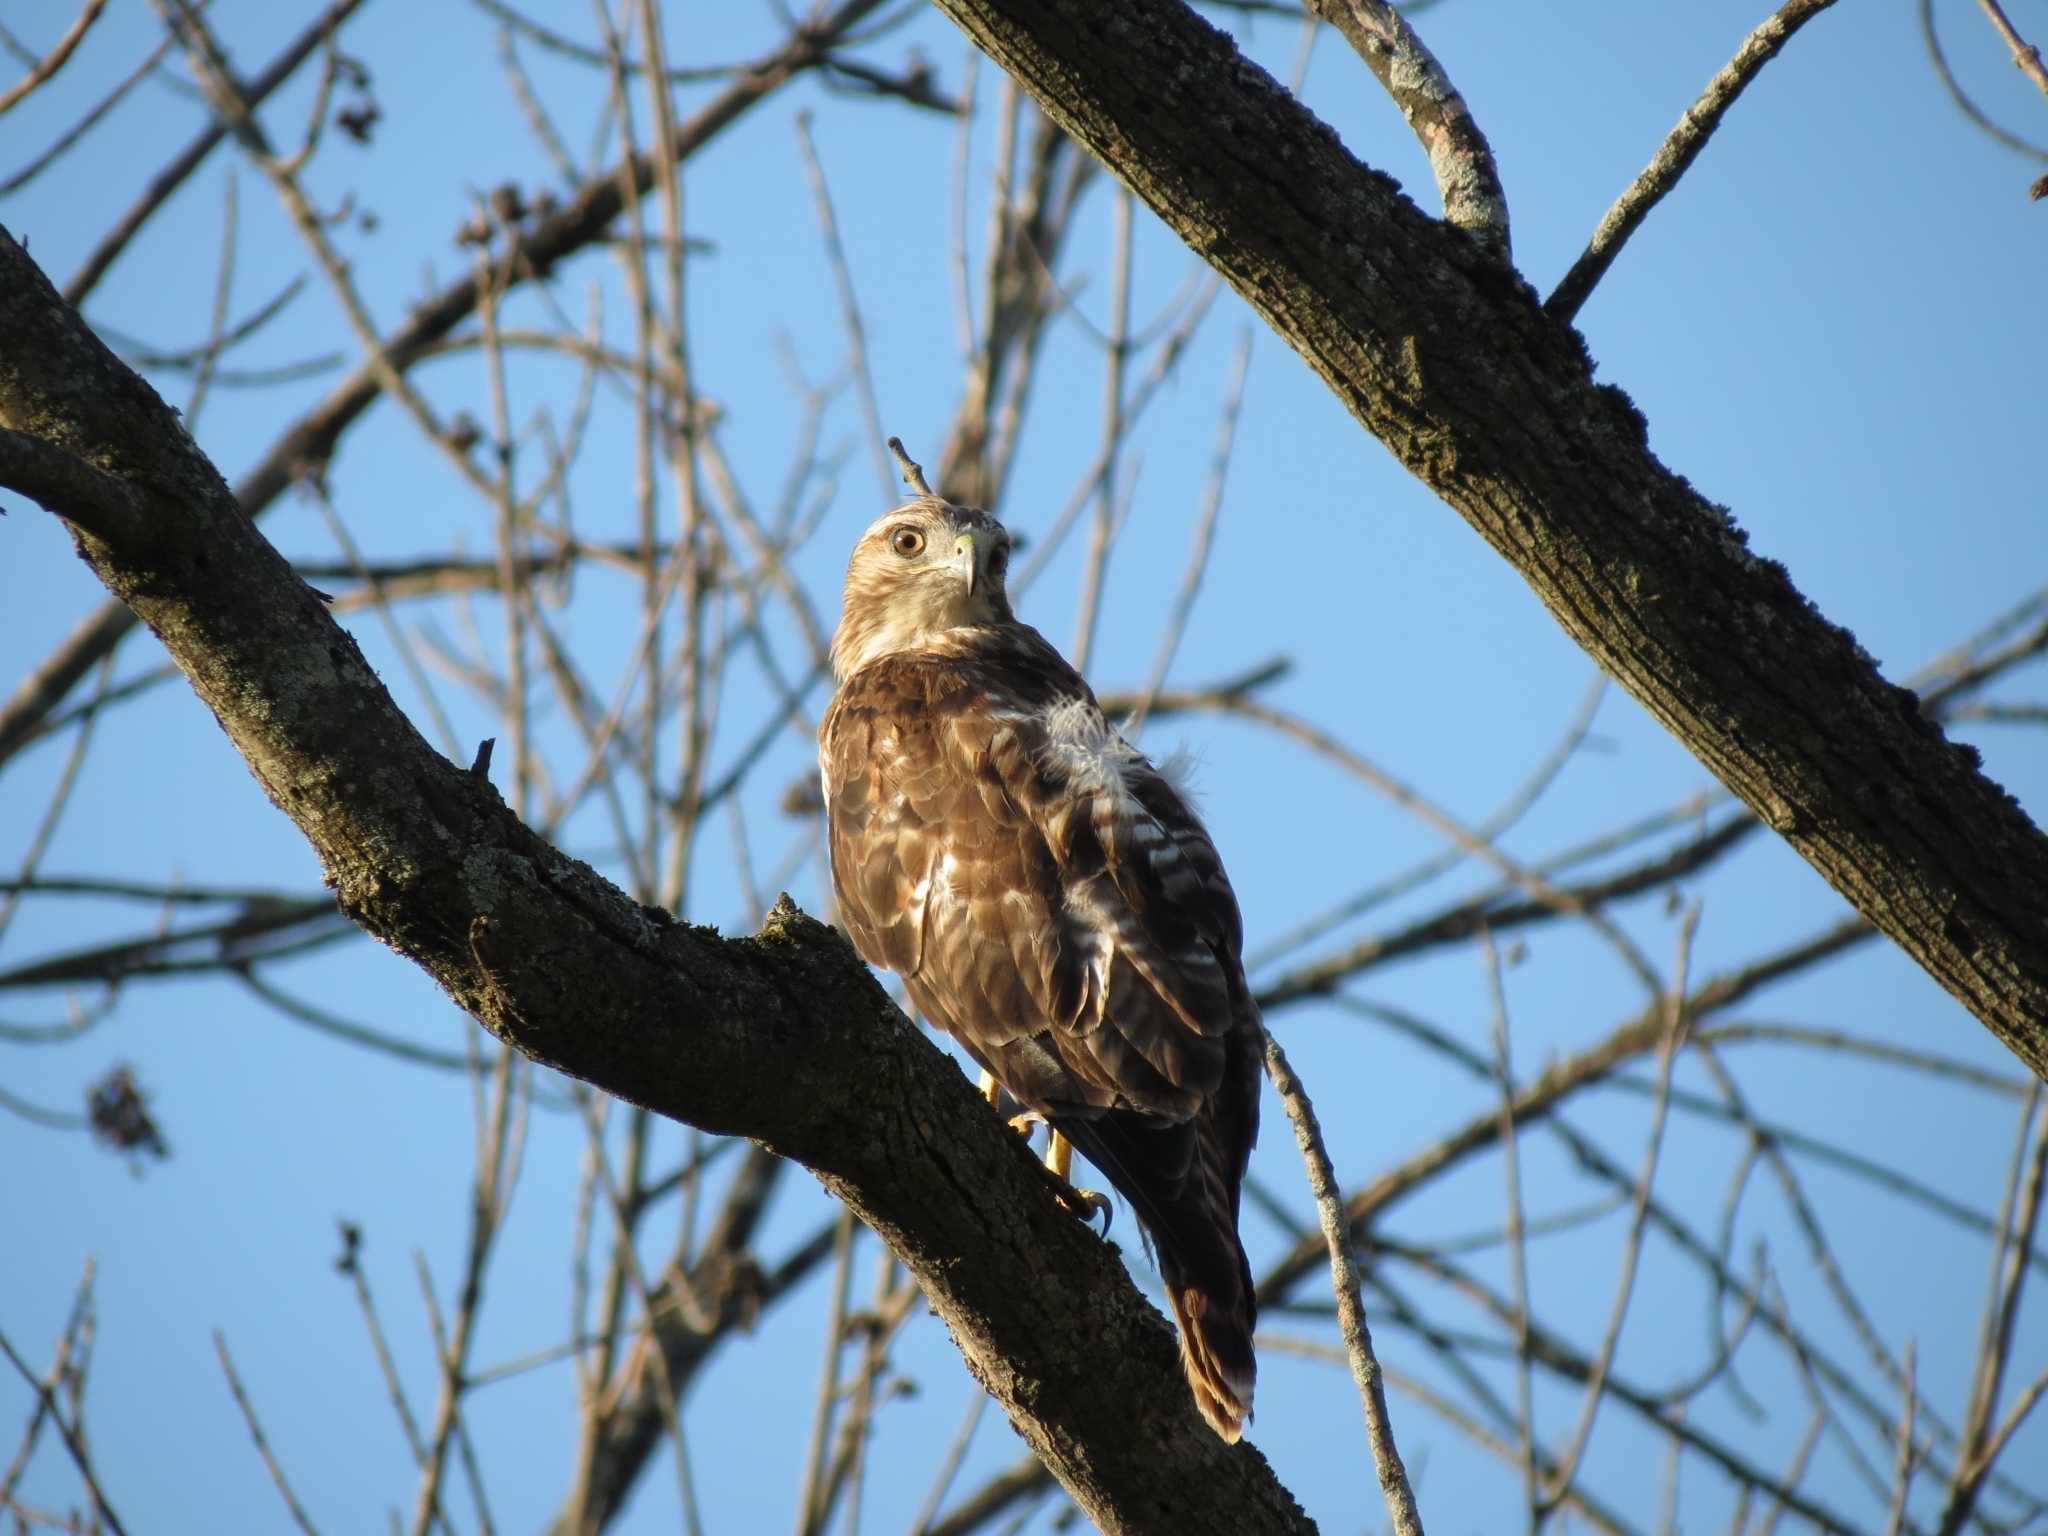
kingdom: Animalia
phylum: Chordata
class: Aves
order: Accipitriformes
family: Accipitridae
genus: Buteo
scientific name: Buteo jamaicensis
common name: Red-tailed hawk
